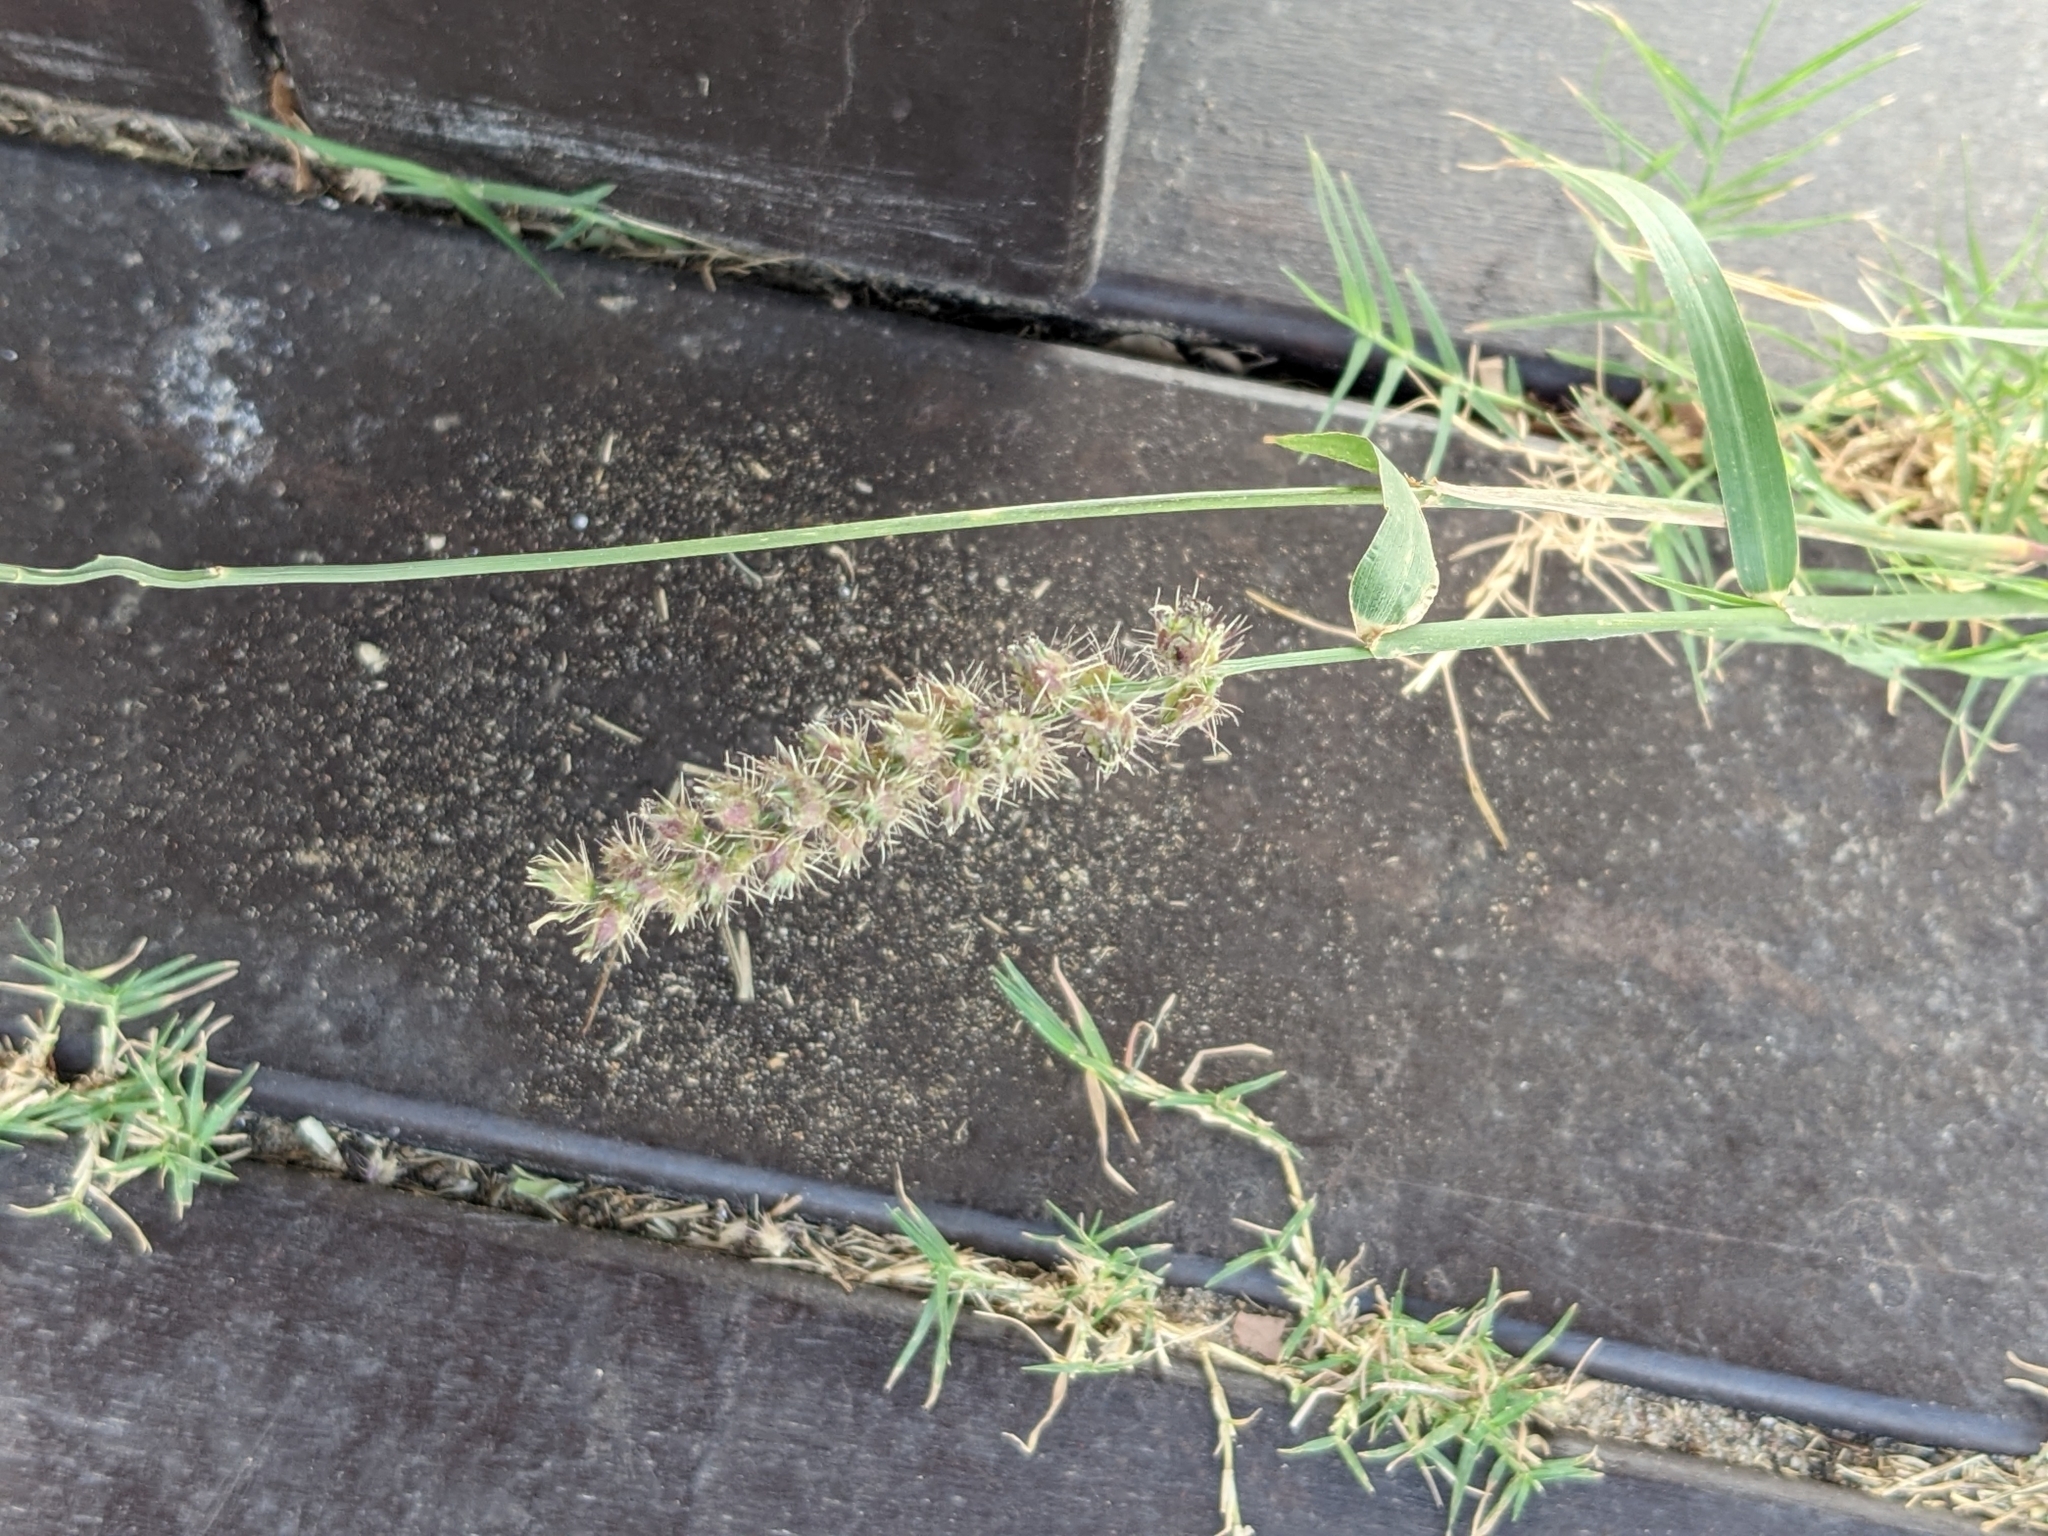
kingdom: Plantae
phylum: Tracheophyta
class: Liliopsida
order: Poales
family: Poaceae
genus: Cenchrus
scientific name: Cenchrus echinatus
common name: Southern sandbur
